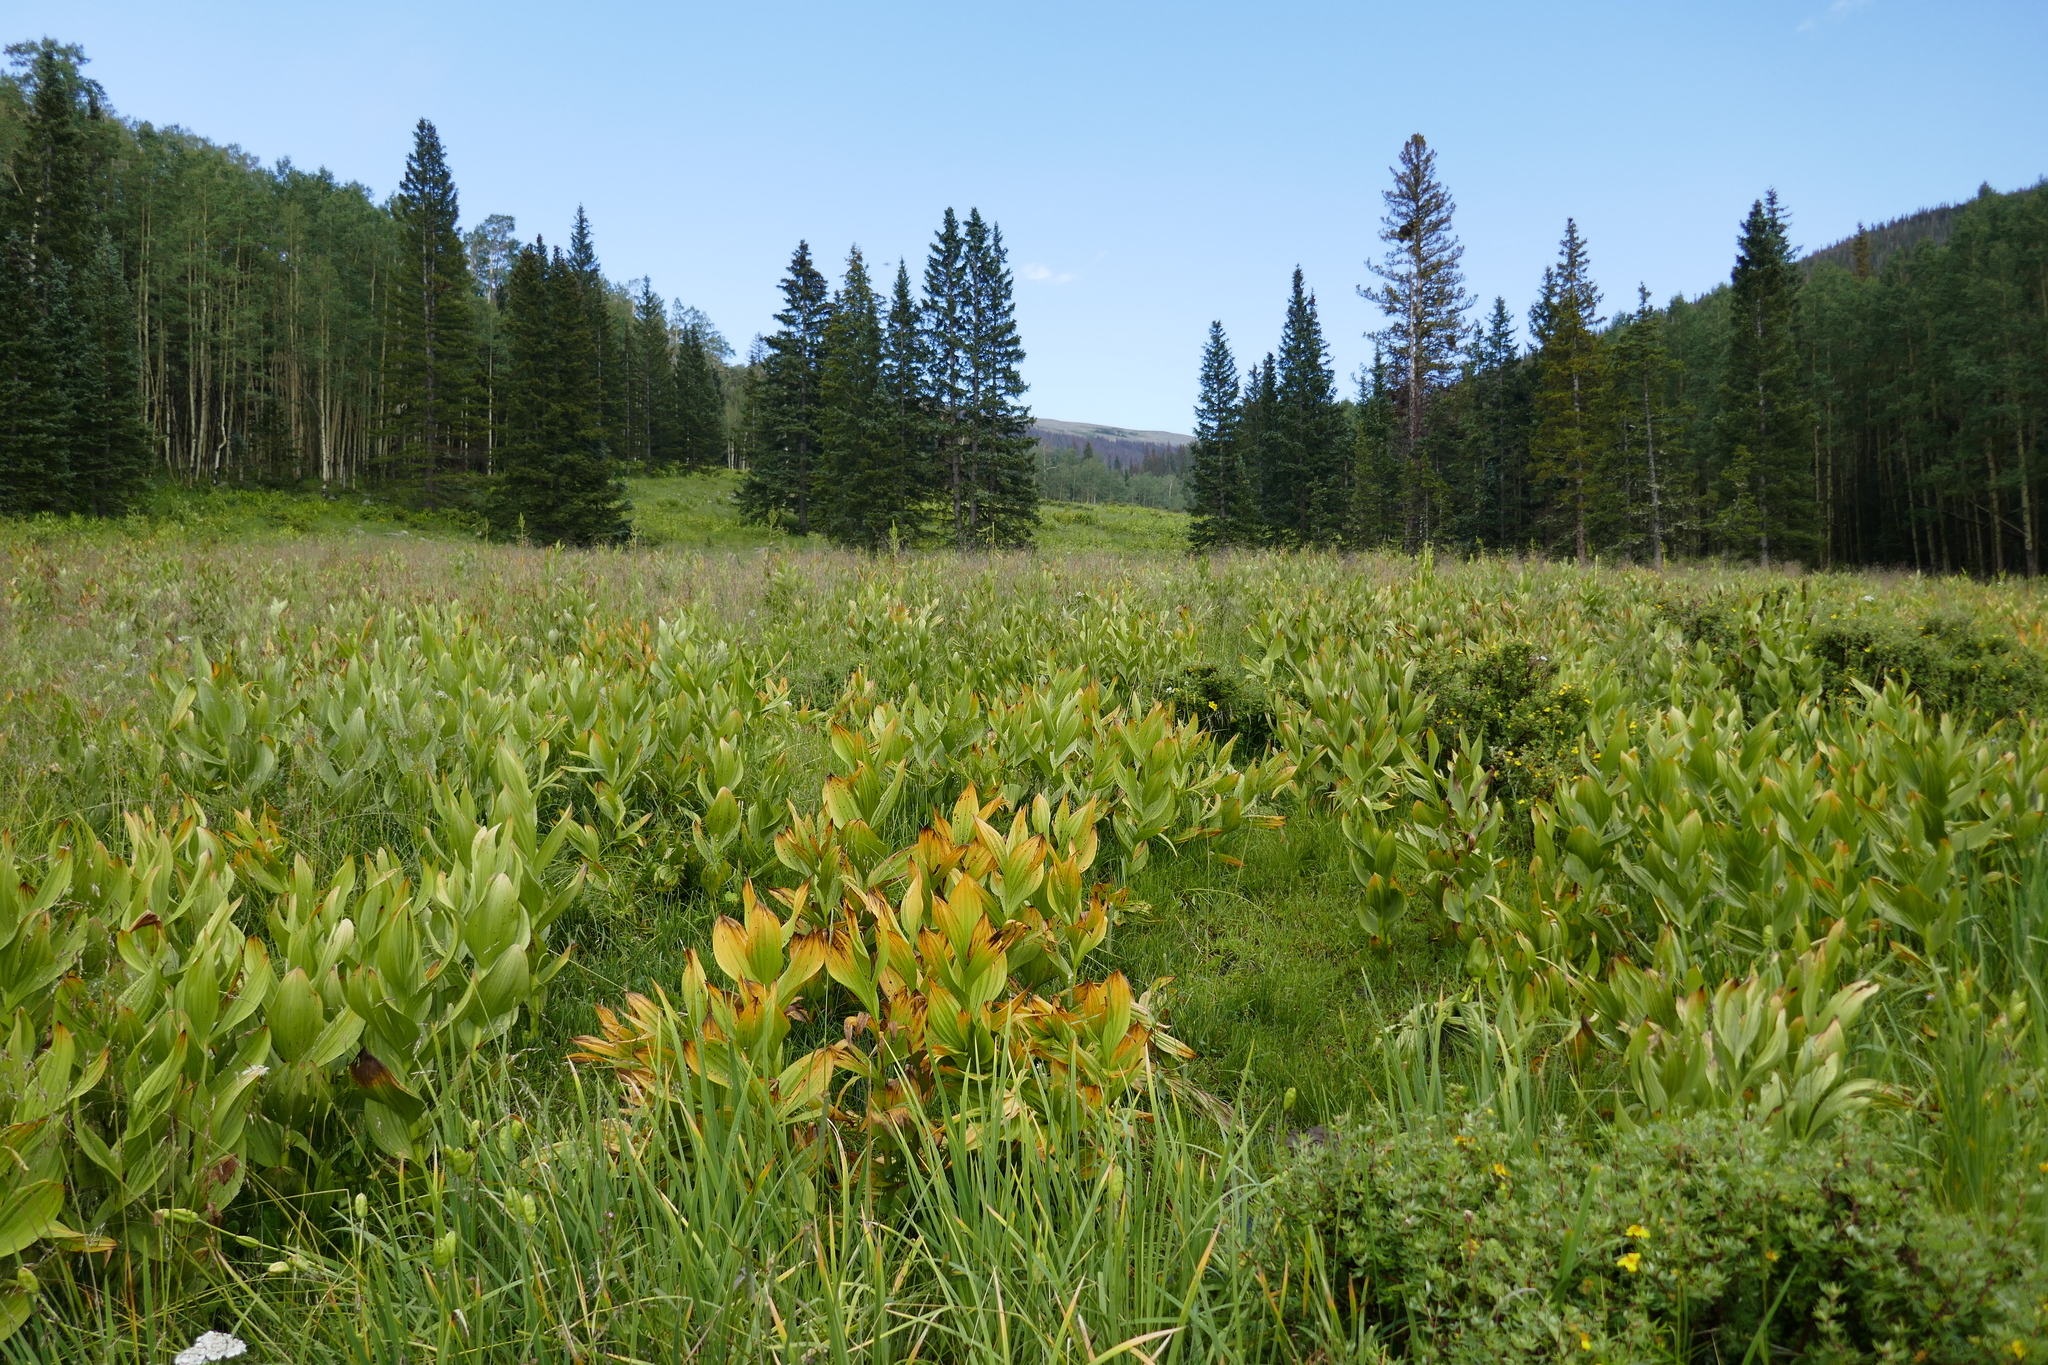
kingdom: Plantae
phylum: Tracheophyta
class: Liliopsida
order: Liliales
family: Melanthiaceae
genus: Veratrum
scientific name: Veratrum californicum
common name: California veratrum
